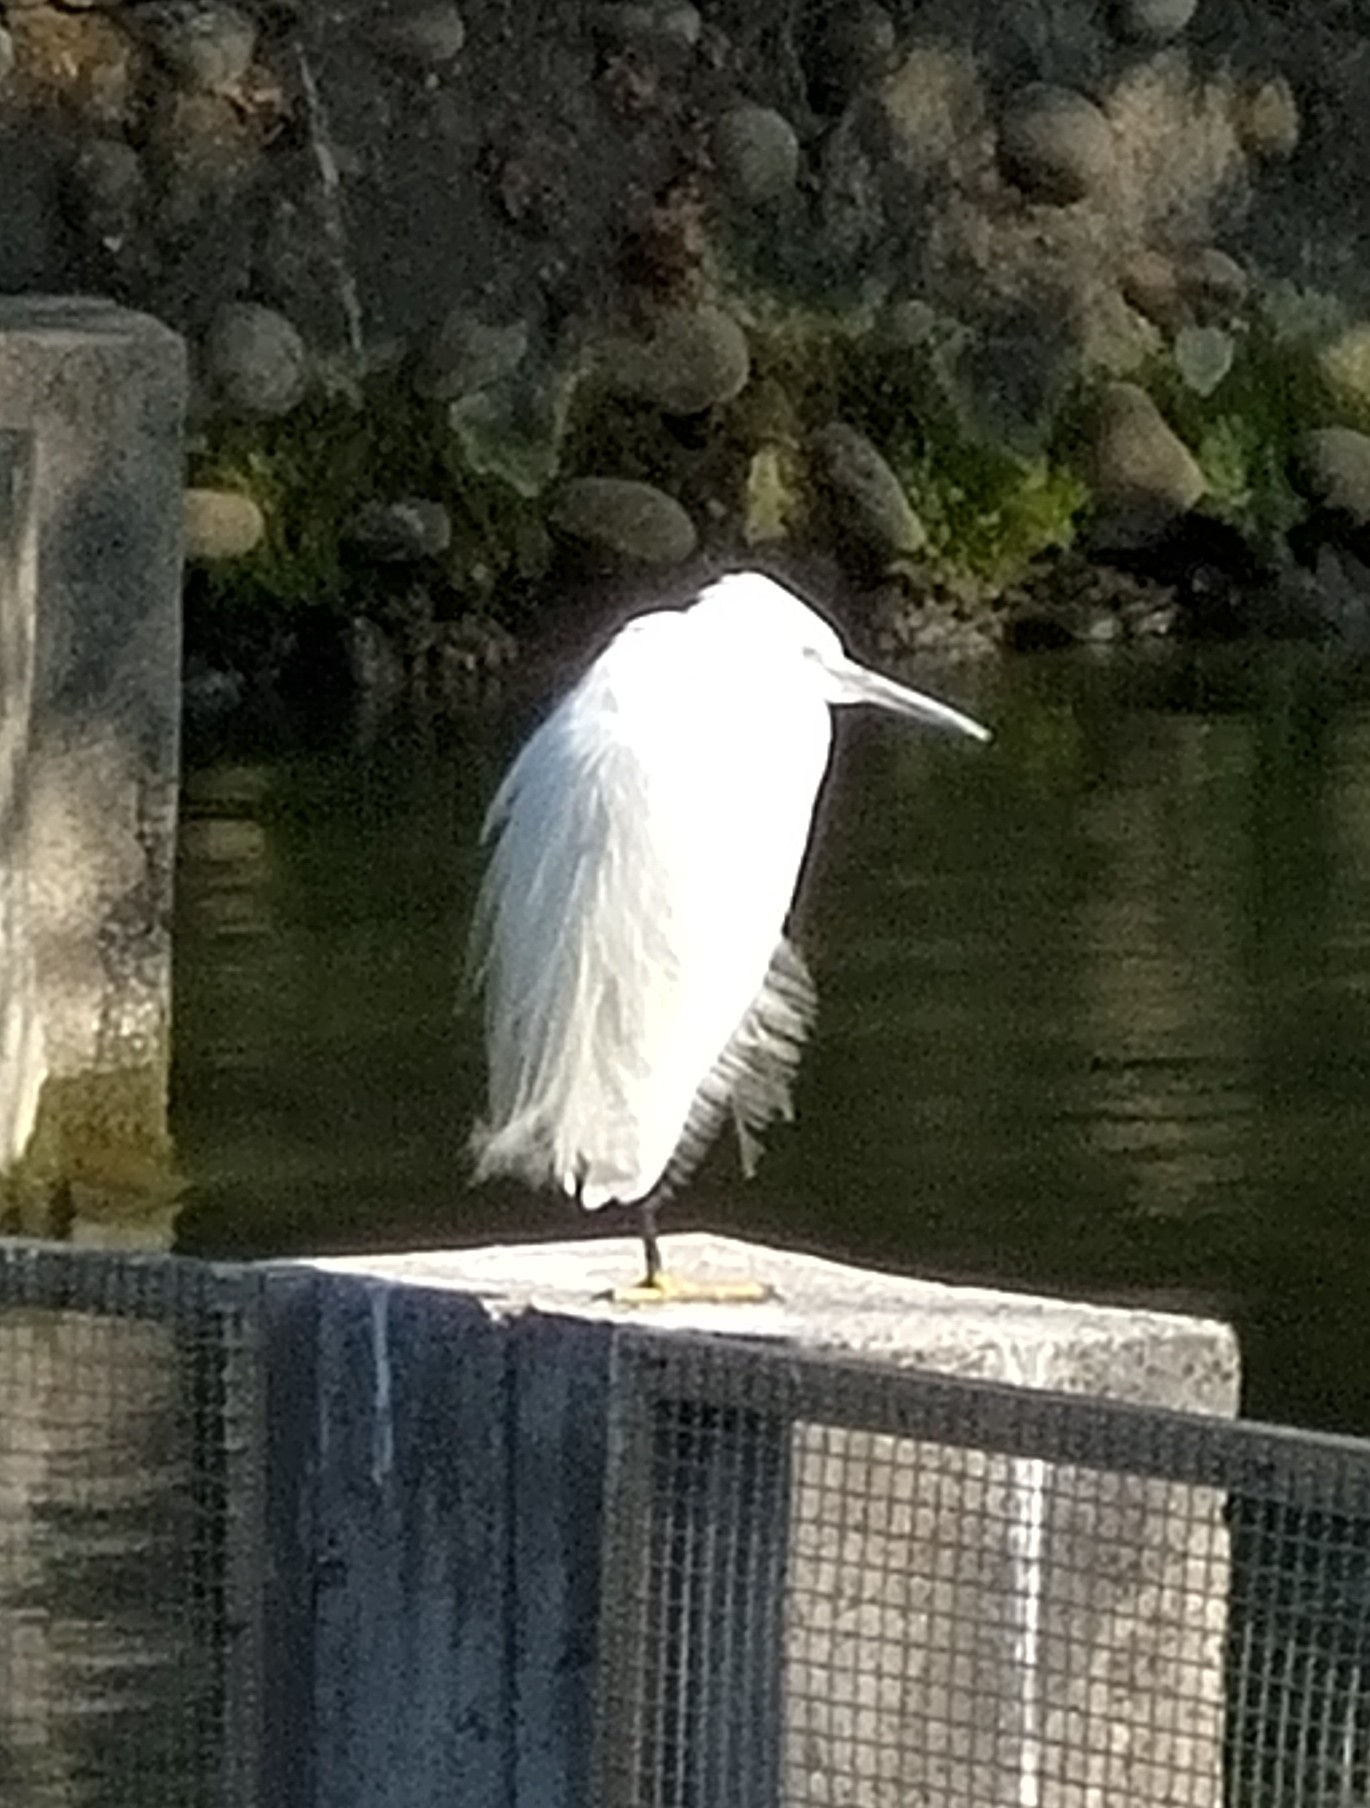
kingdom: Animalia
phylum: Chordata
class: Aves
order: Pelecaniformes
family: Ardeidae
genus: Egretta
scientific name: Egretta garzetta
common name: Little egret
